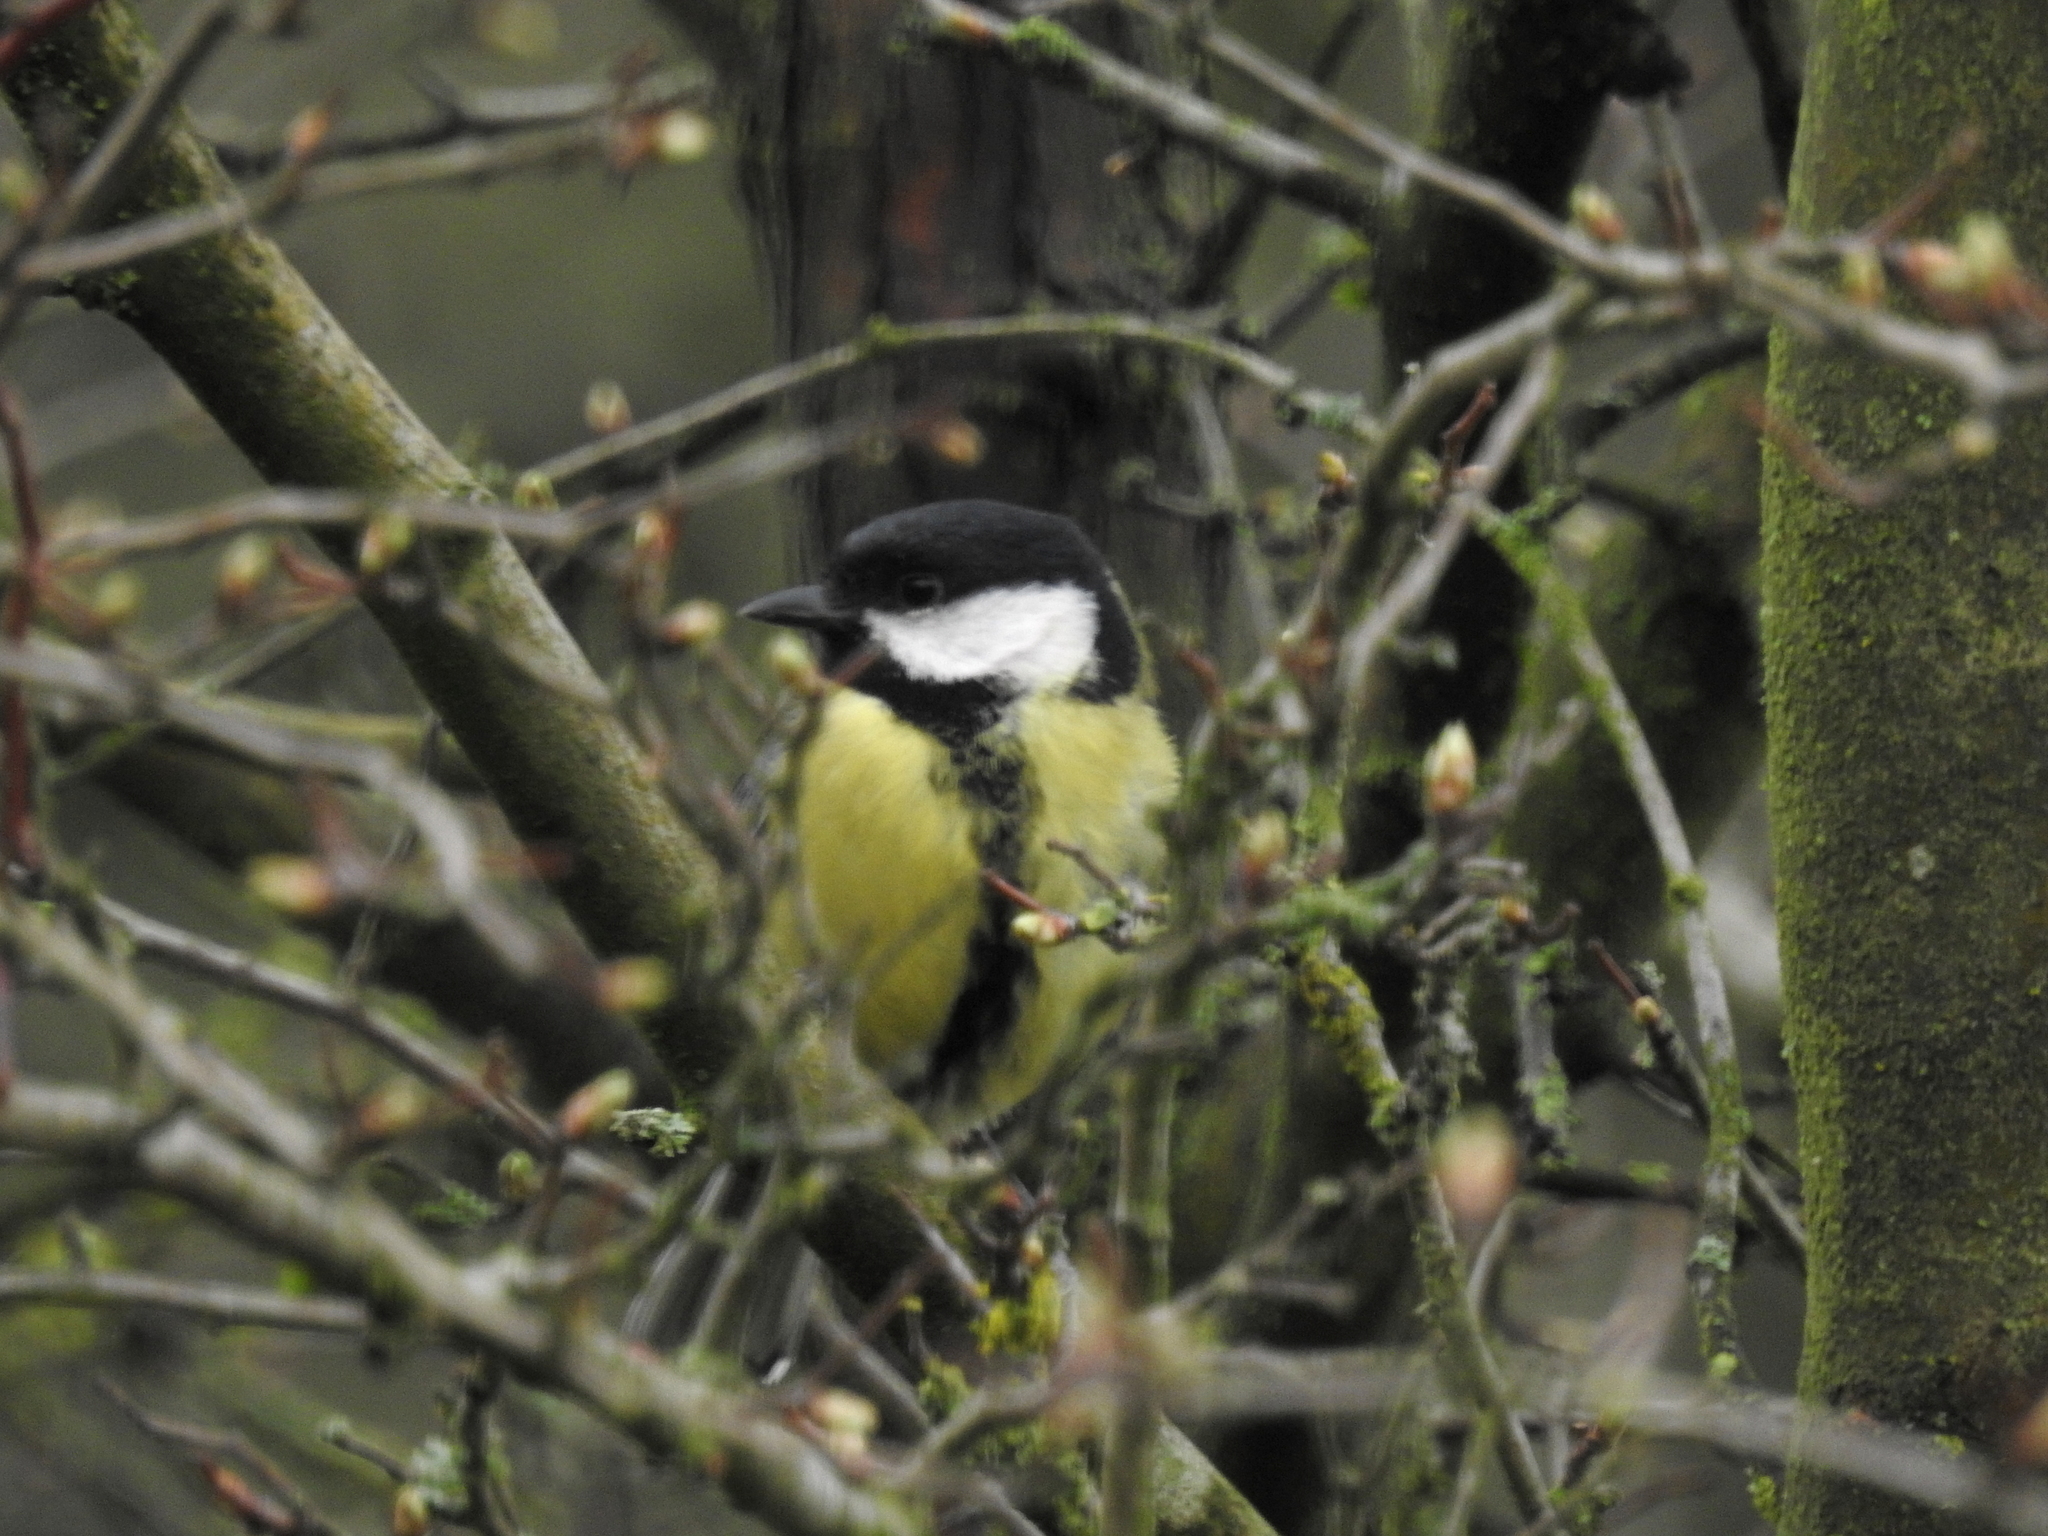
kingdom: Animalia
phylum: Chordata
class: Aves
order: Passeriformes
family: Paridae
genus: Parus
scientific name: Parus major
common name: Great tit
